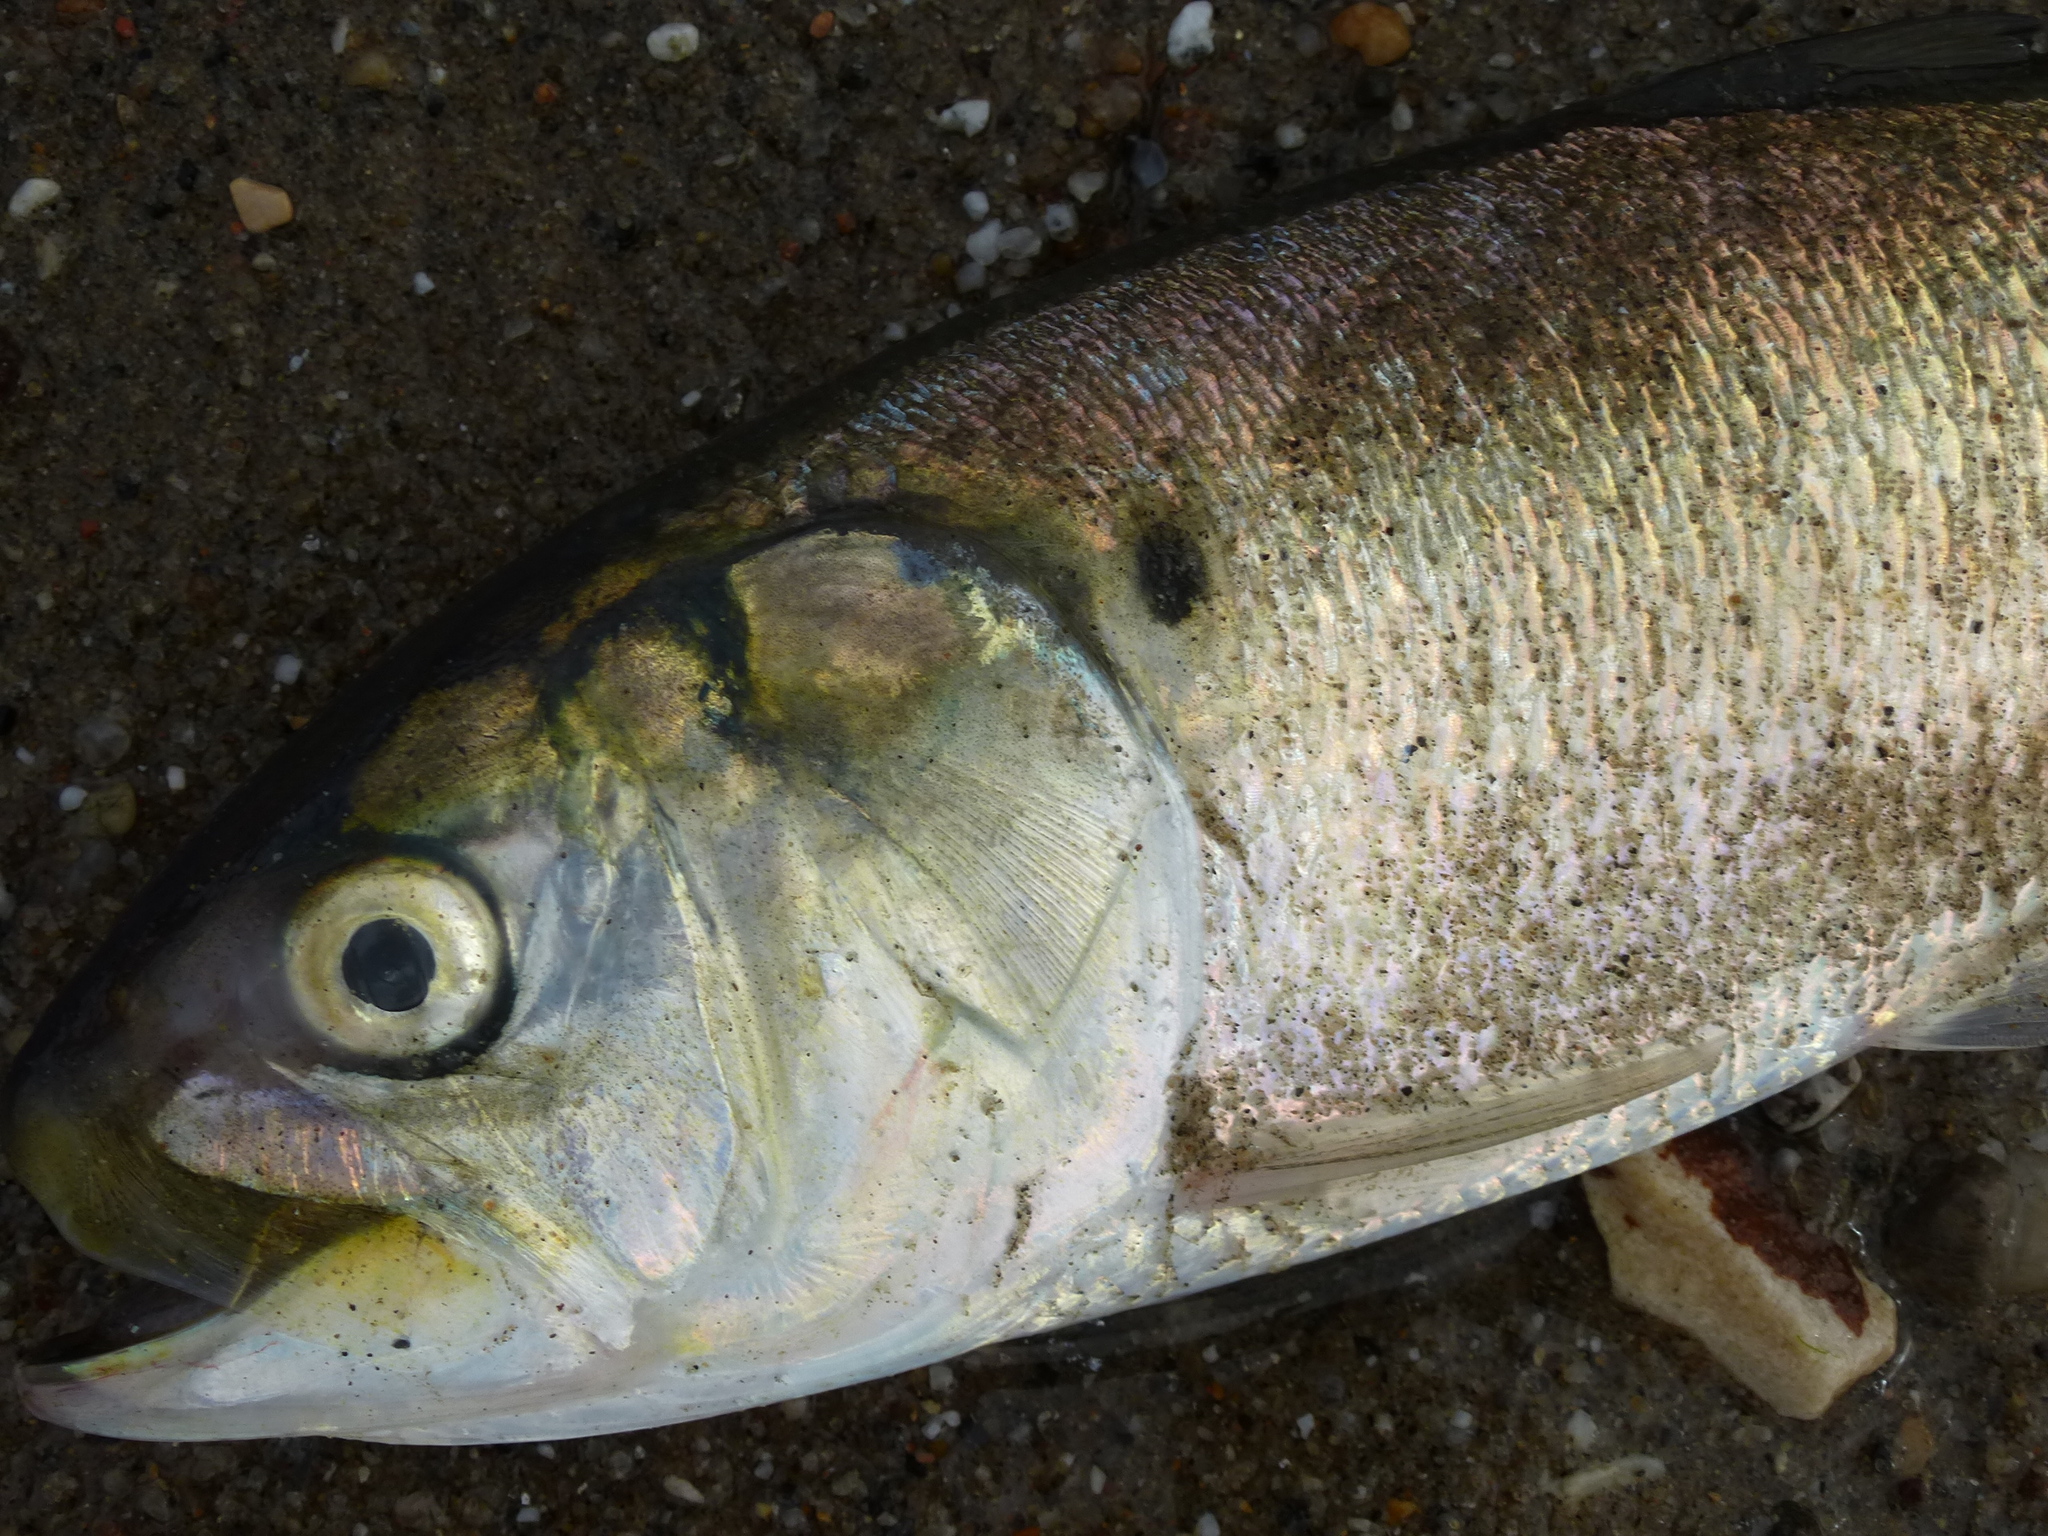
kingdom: Animalia
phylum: Chordata
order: Clupeiformes
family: Clupeidae
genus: Brevoortia
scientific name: Brevoortia tyrannus
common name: Atlantic menhaden
